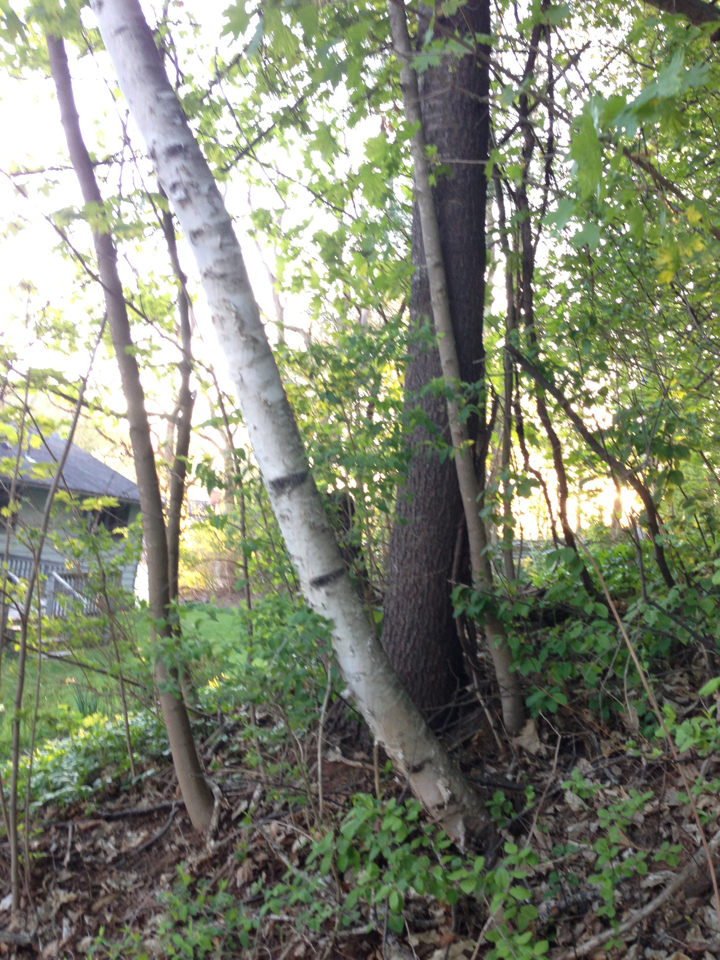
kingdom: Plantae
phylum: Tracheophyta
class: Magnoliopsida
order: Fagales
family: Betulaceae
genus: Betula
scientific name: Betula papyrifera
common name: Paper birch
